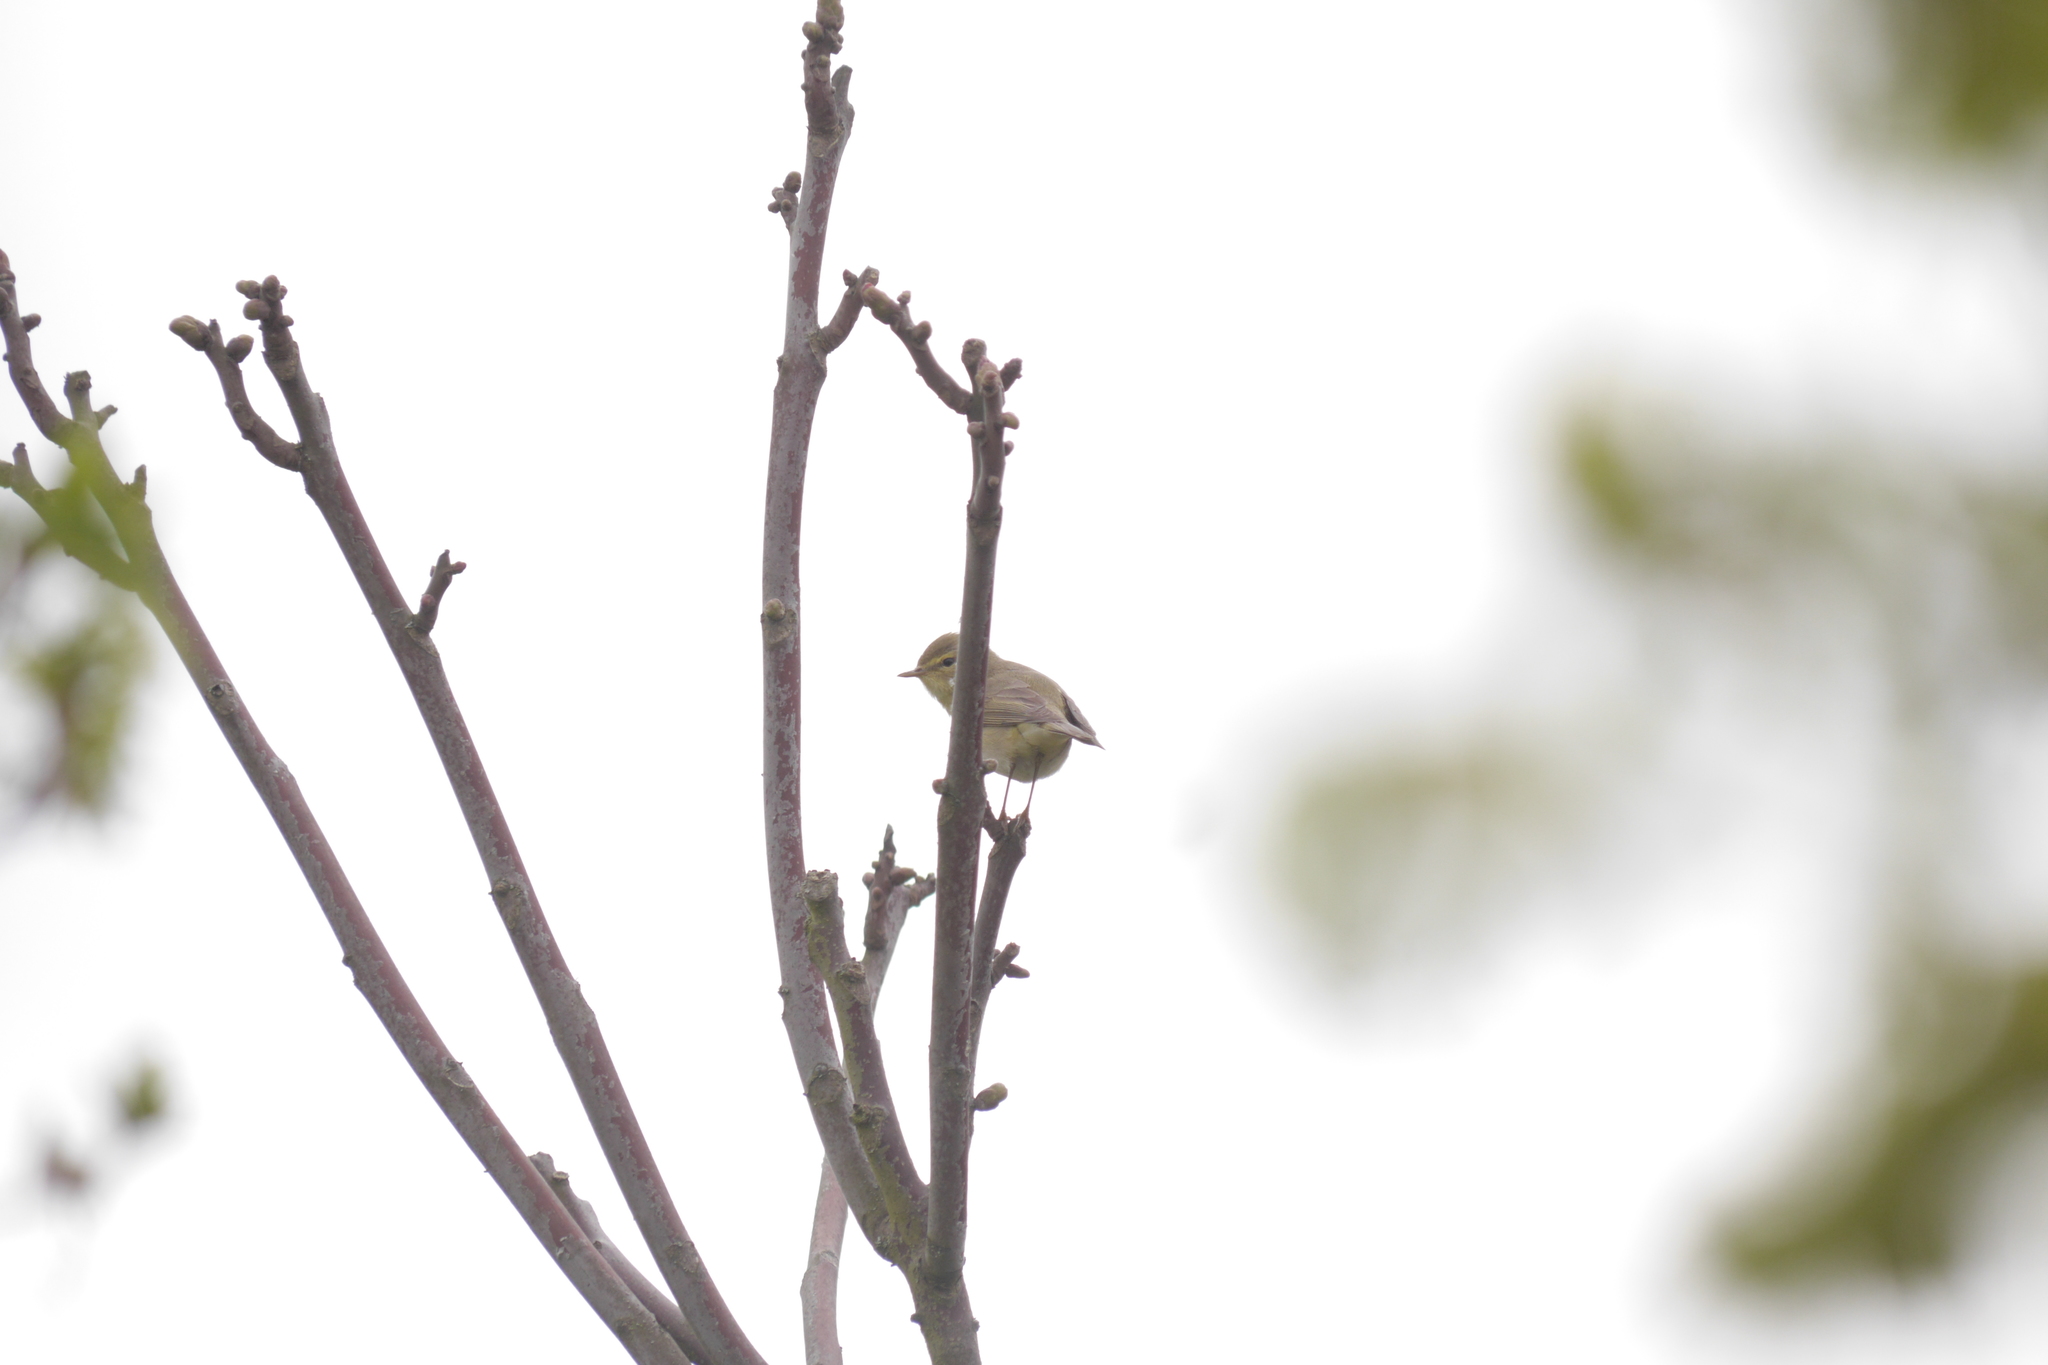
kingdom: Animalia
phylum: Chordata
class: Aves
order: Passeriformes
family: Phylloscopidae
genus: Phylloscopus
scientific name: Phylloscopus trochilus
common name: Willow warbler
